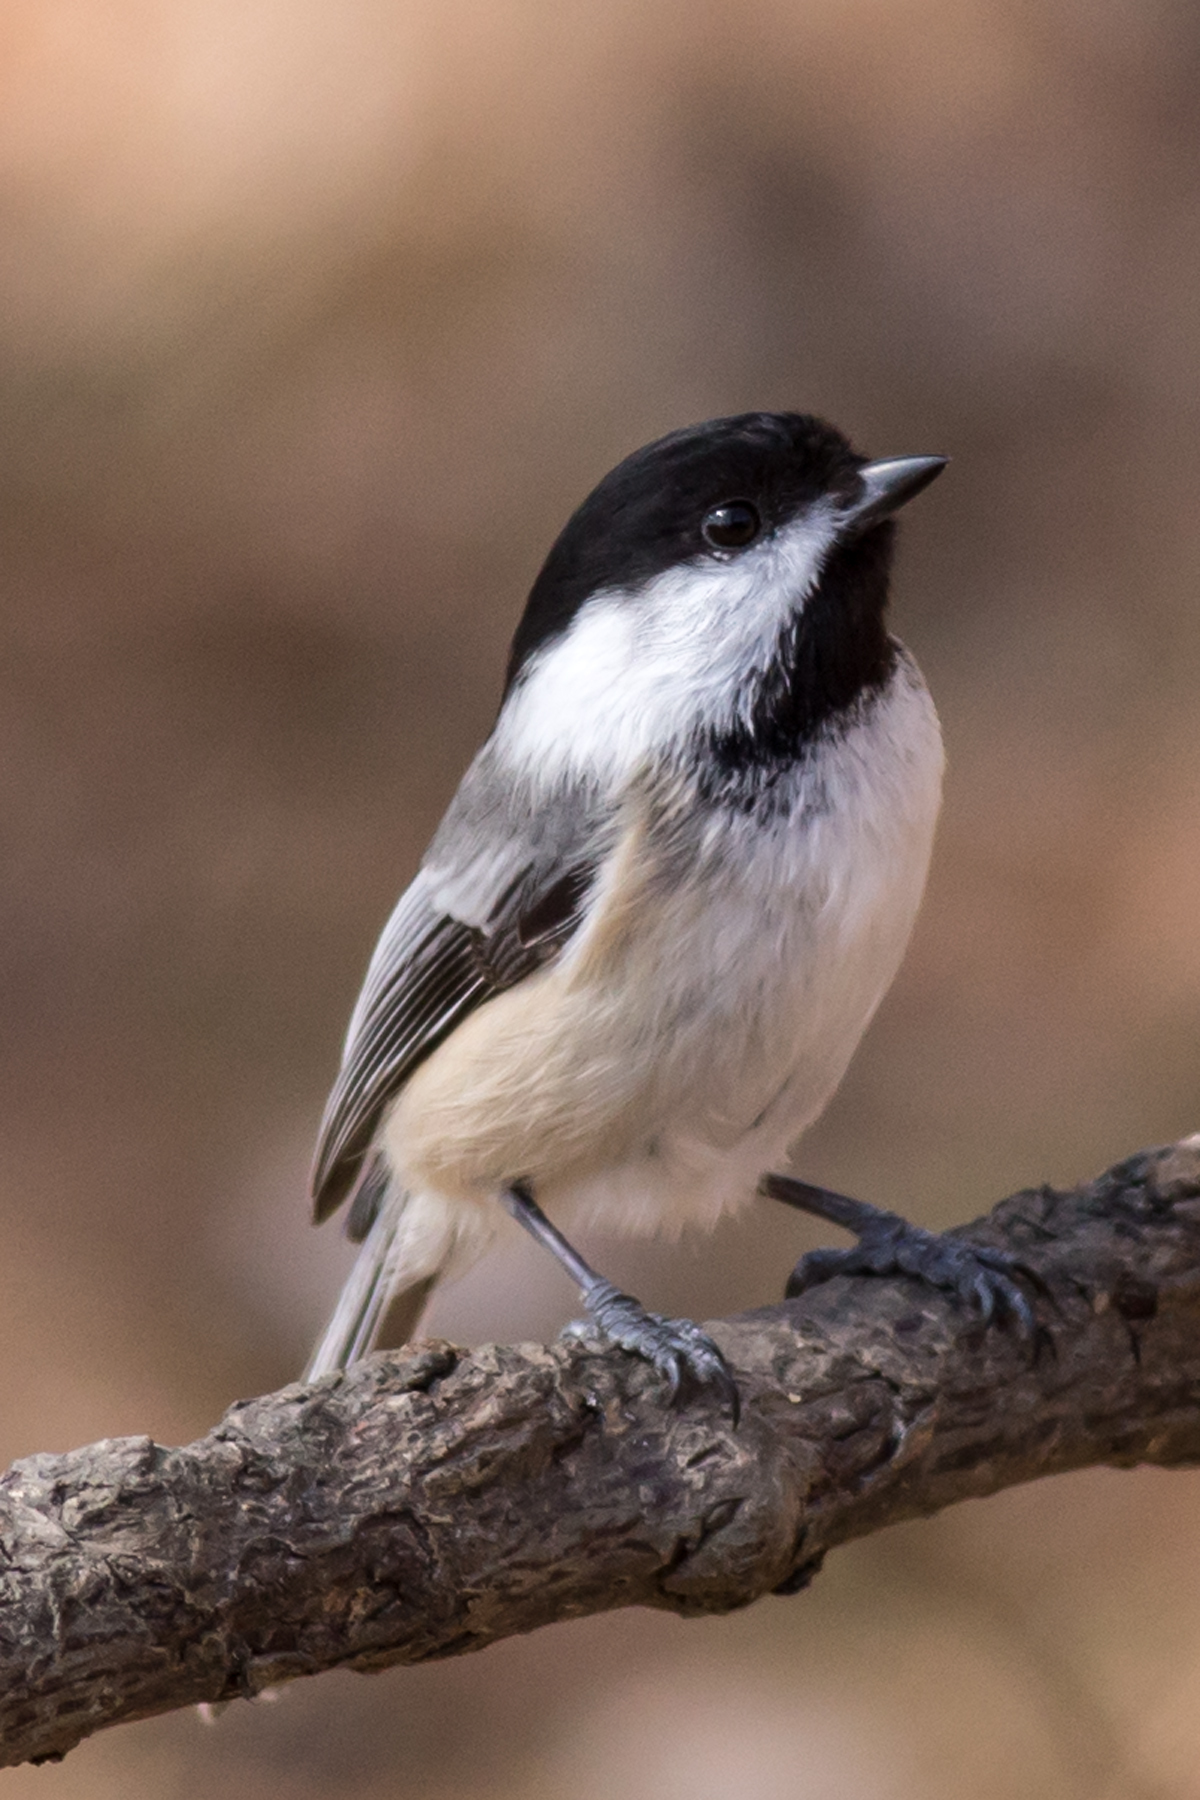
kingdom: Animalia
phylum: Chordata
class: Aves
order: Passeriformes
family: Paridae
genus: Poecile
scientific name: Poecile atricapillus
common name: Black-capped chickadee
